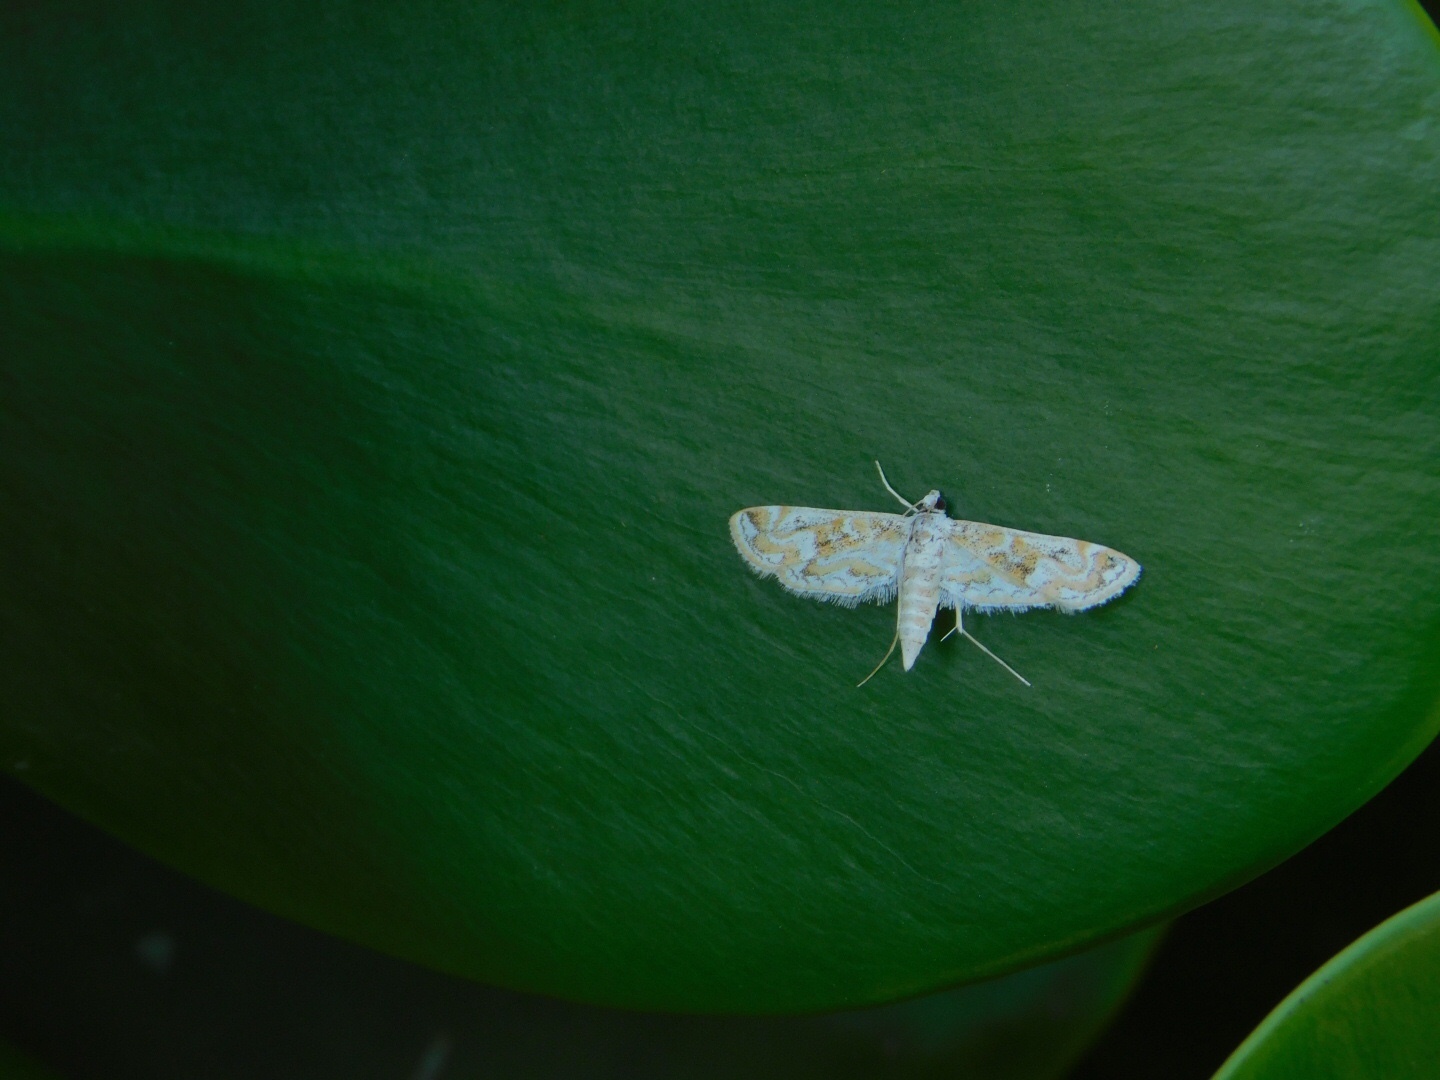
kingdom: Animalia
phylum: Arthropoda
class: Insecta
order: Lepidoptera
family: Crambidae
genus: Parapoynx
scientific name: Parapoynx diminutalis
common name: Hydrilla leafcutter
